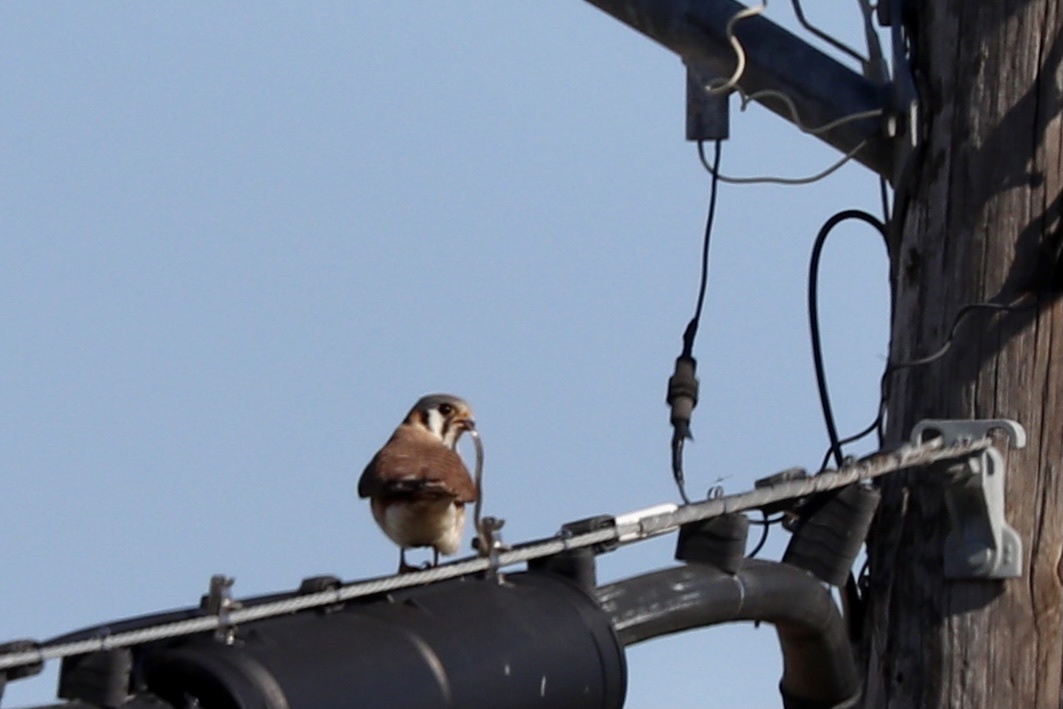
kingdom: Animalia
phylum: Chordata
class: Aves
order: Falconiformes
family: Falconidae
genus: Falco
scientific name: Falco sparverius
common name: American kestrel
